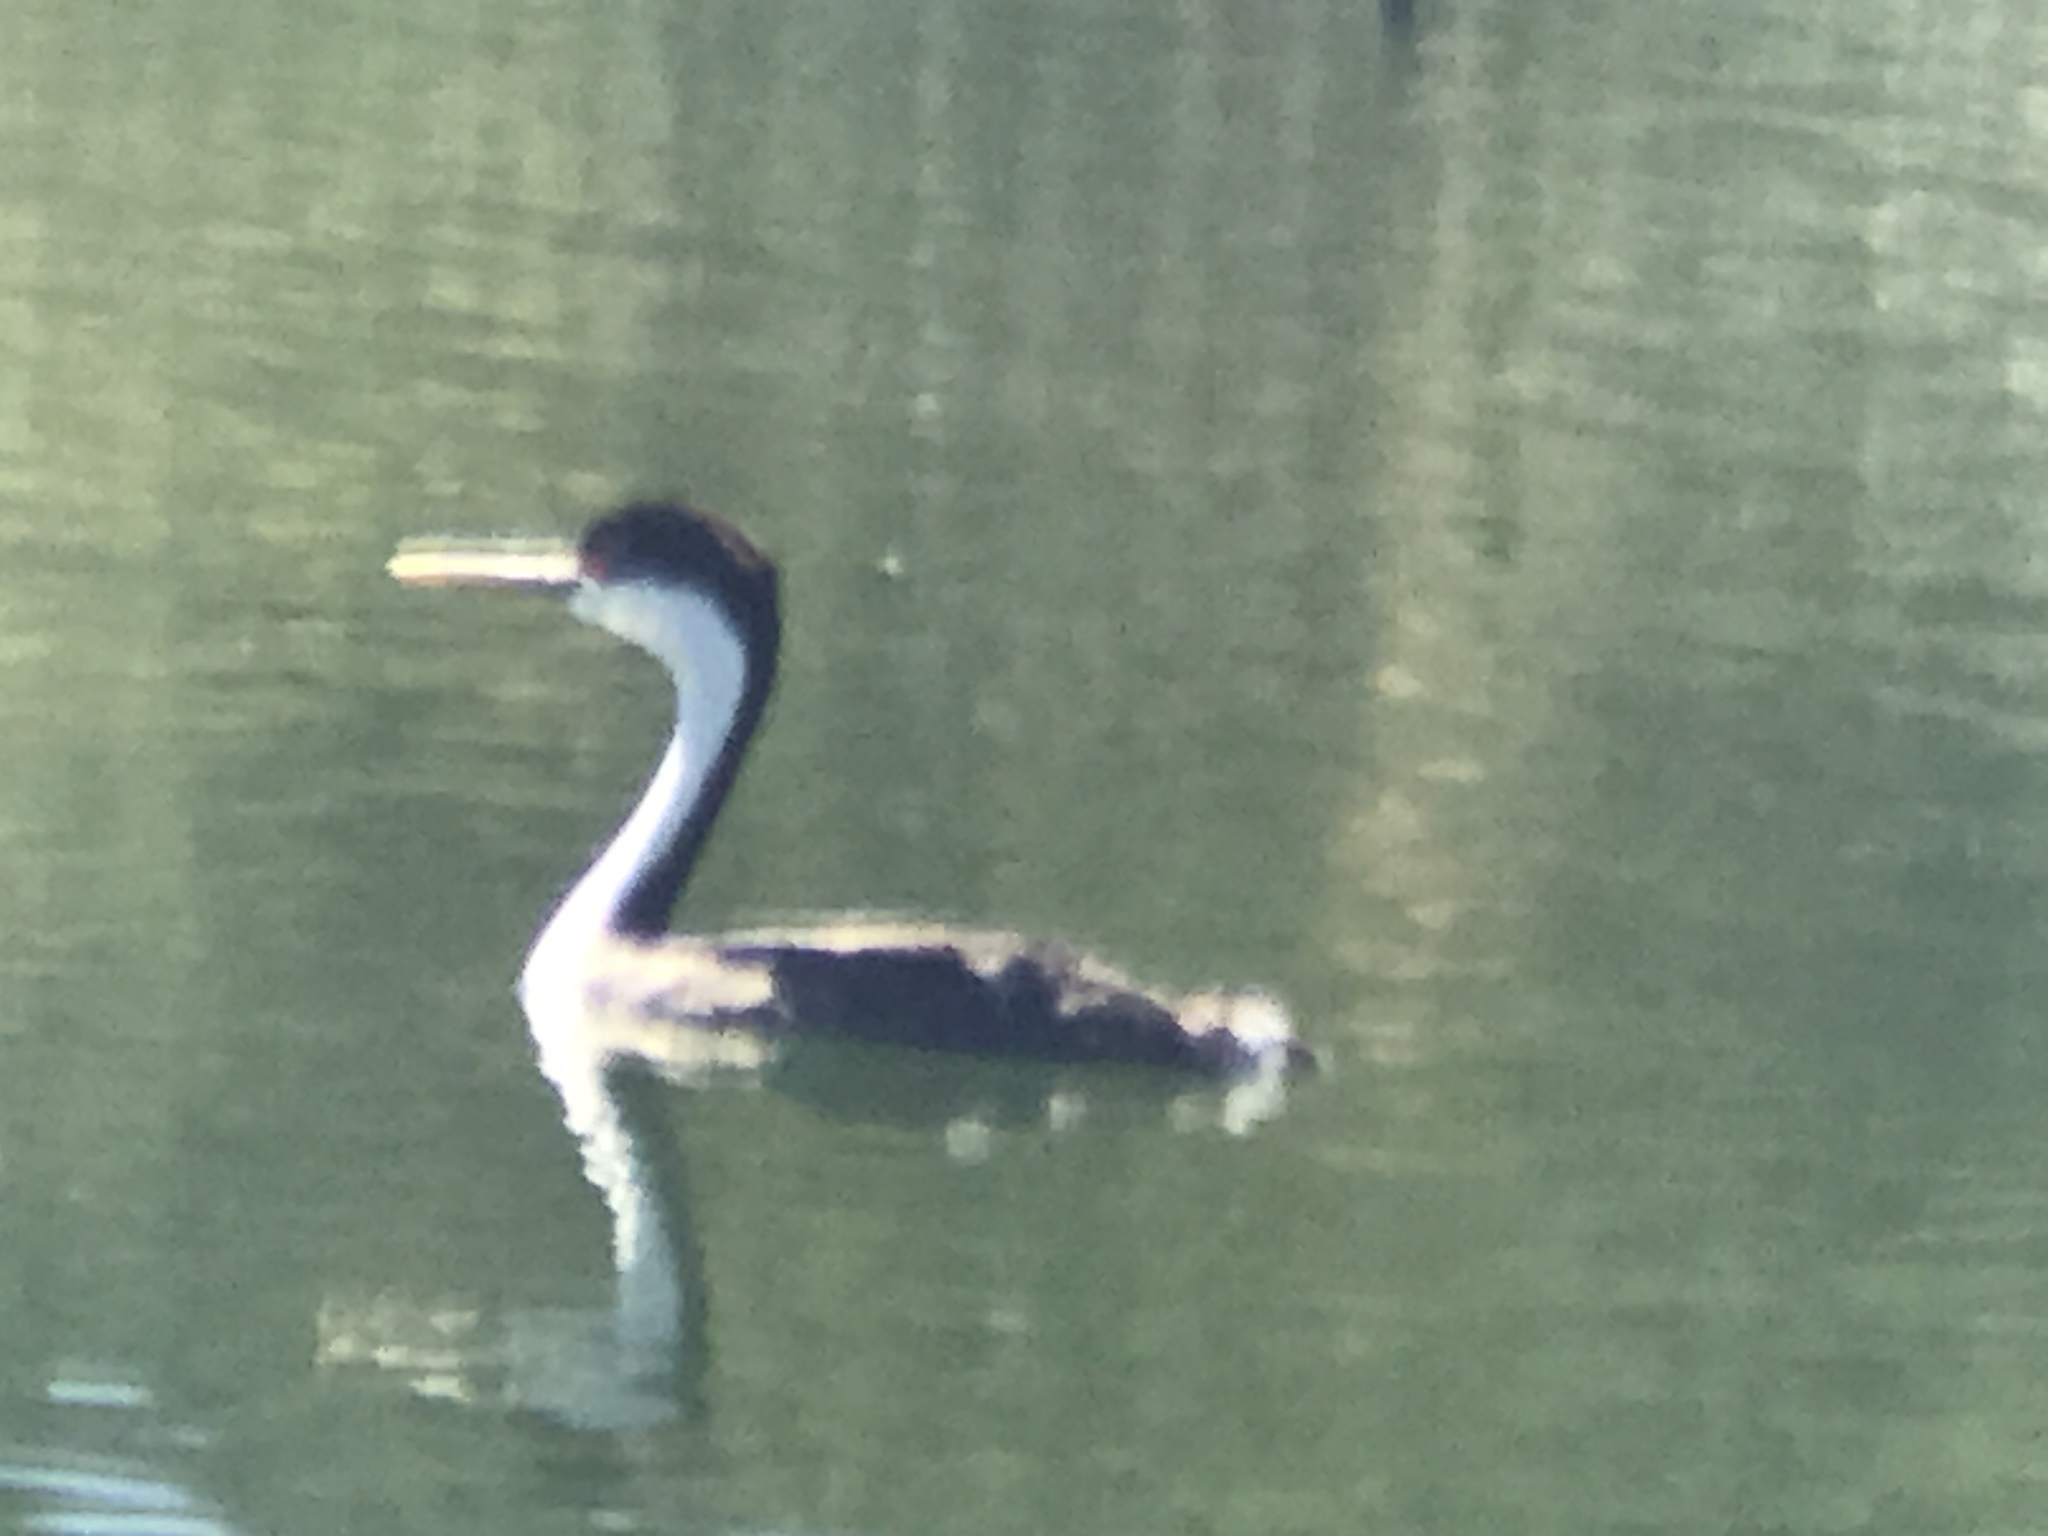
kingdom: Animalia
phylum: Chordata
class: Aves
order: Podicipediformes
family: Podicipedidae
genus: Aechmophorus
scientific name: Aechmophorus occidentalis
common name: Western grebe
